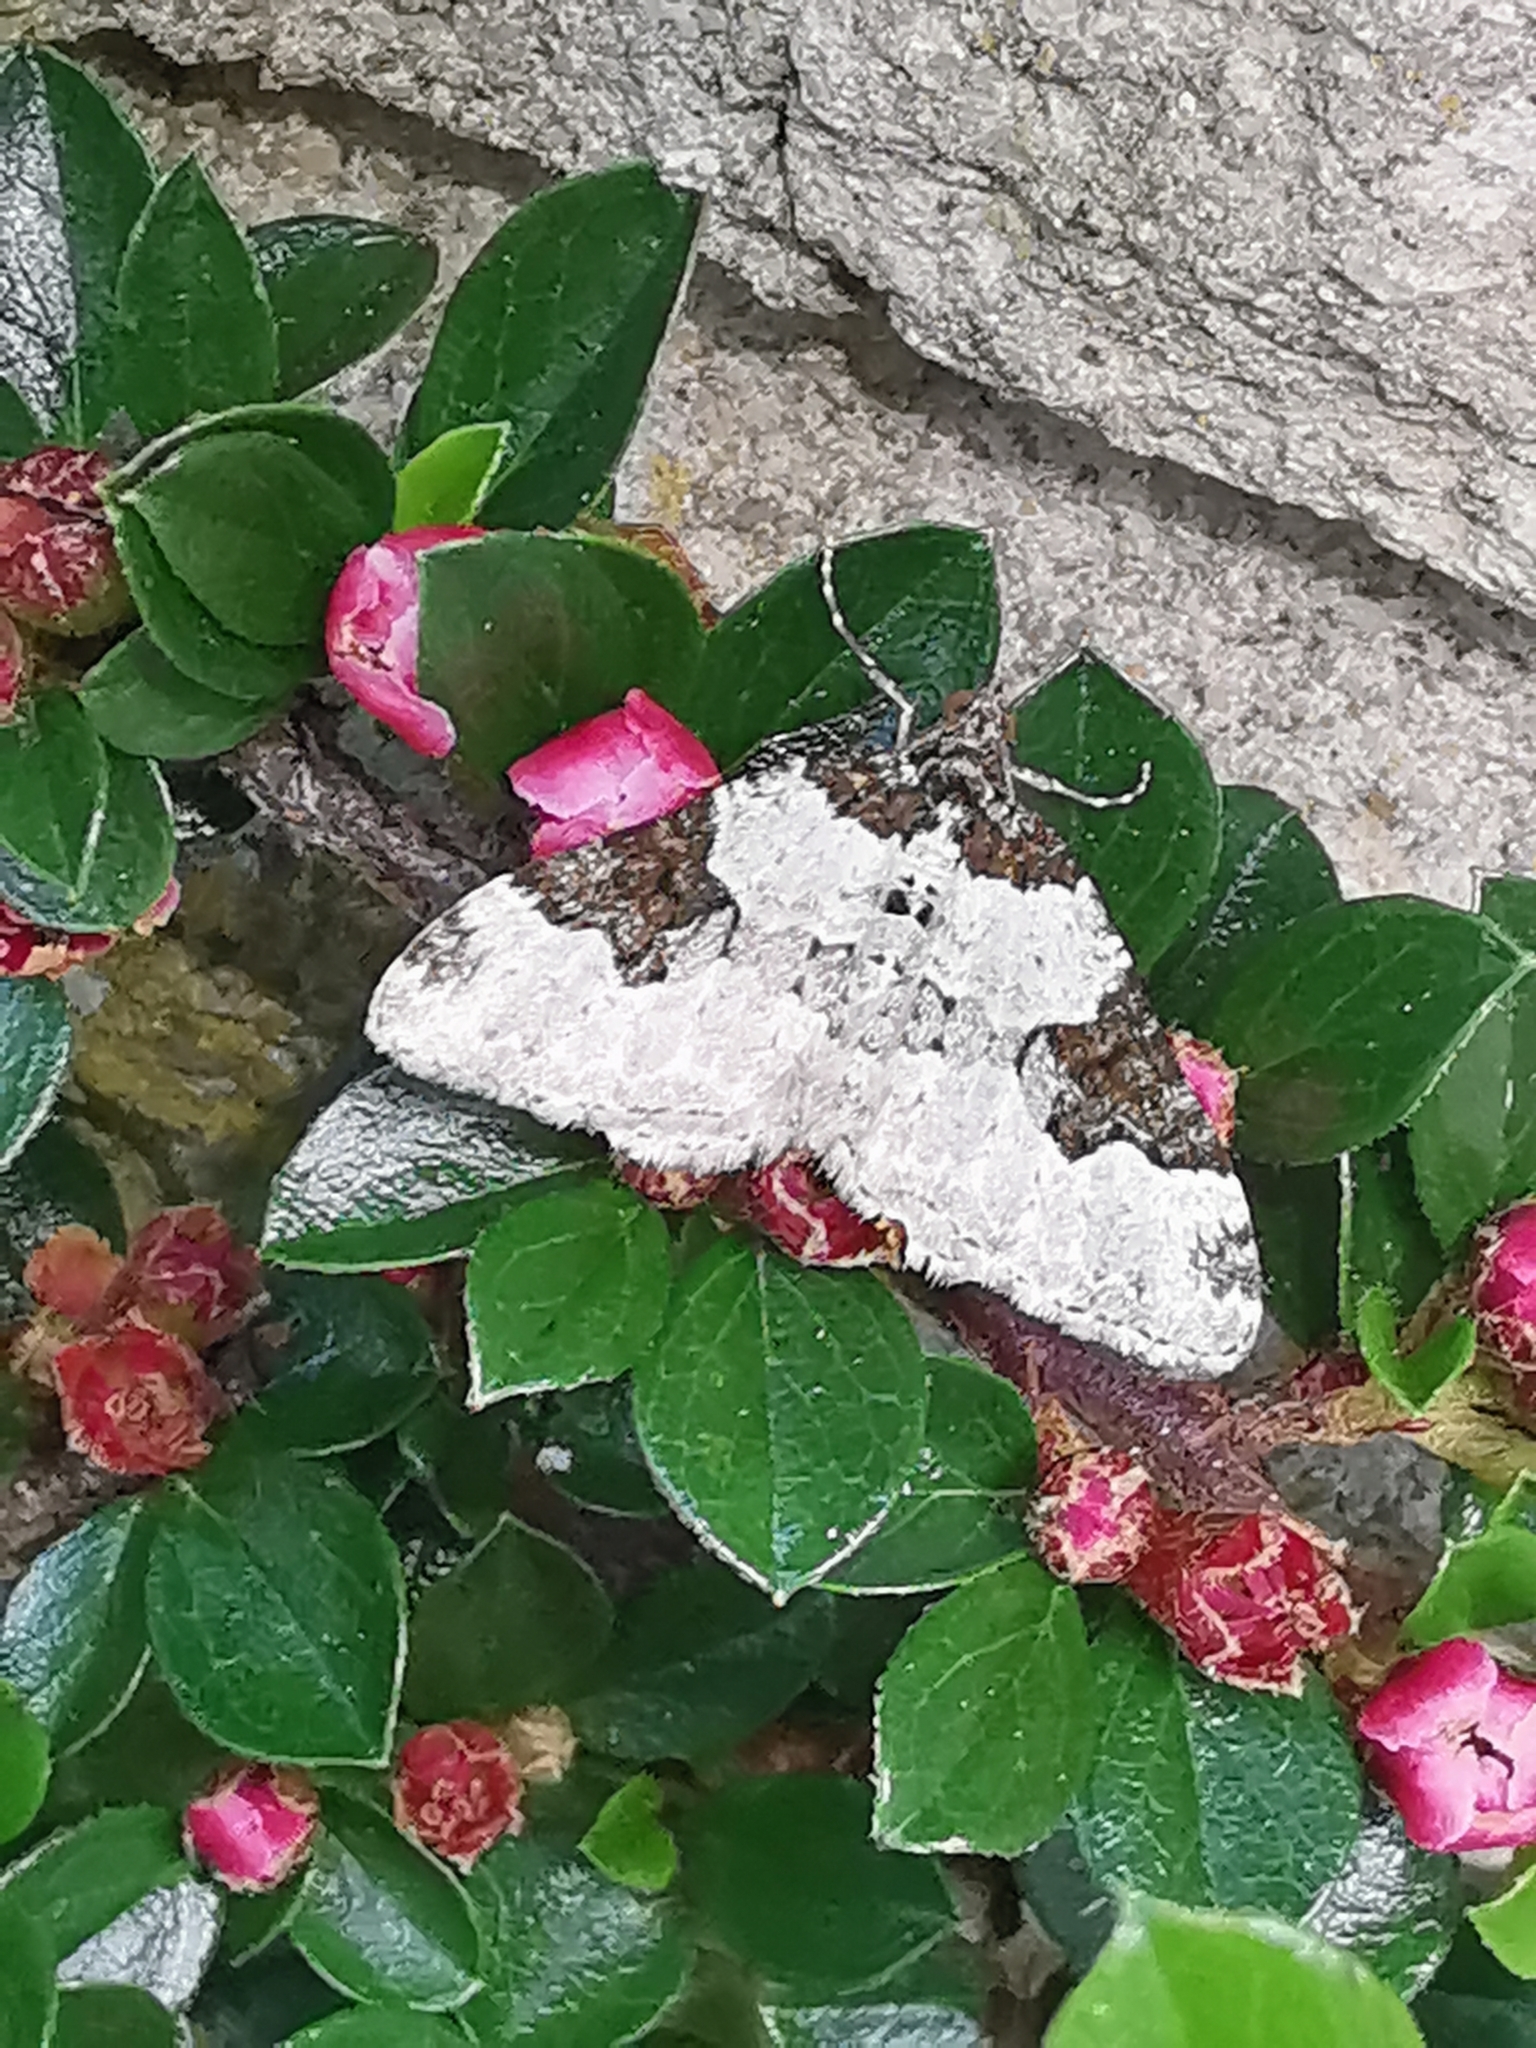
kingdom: Animalia
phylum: Arthropoda
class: Insecta
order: Lepidoptera
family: Geometridae
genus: Xanthorhoe
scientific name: Xanthorhoe fluctuata
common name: Garden carpet
